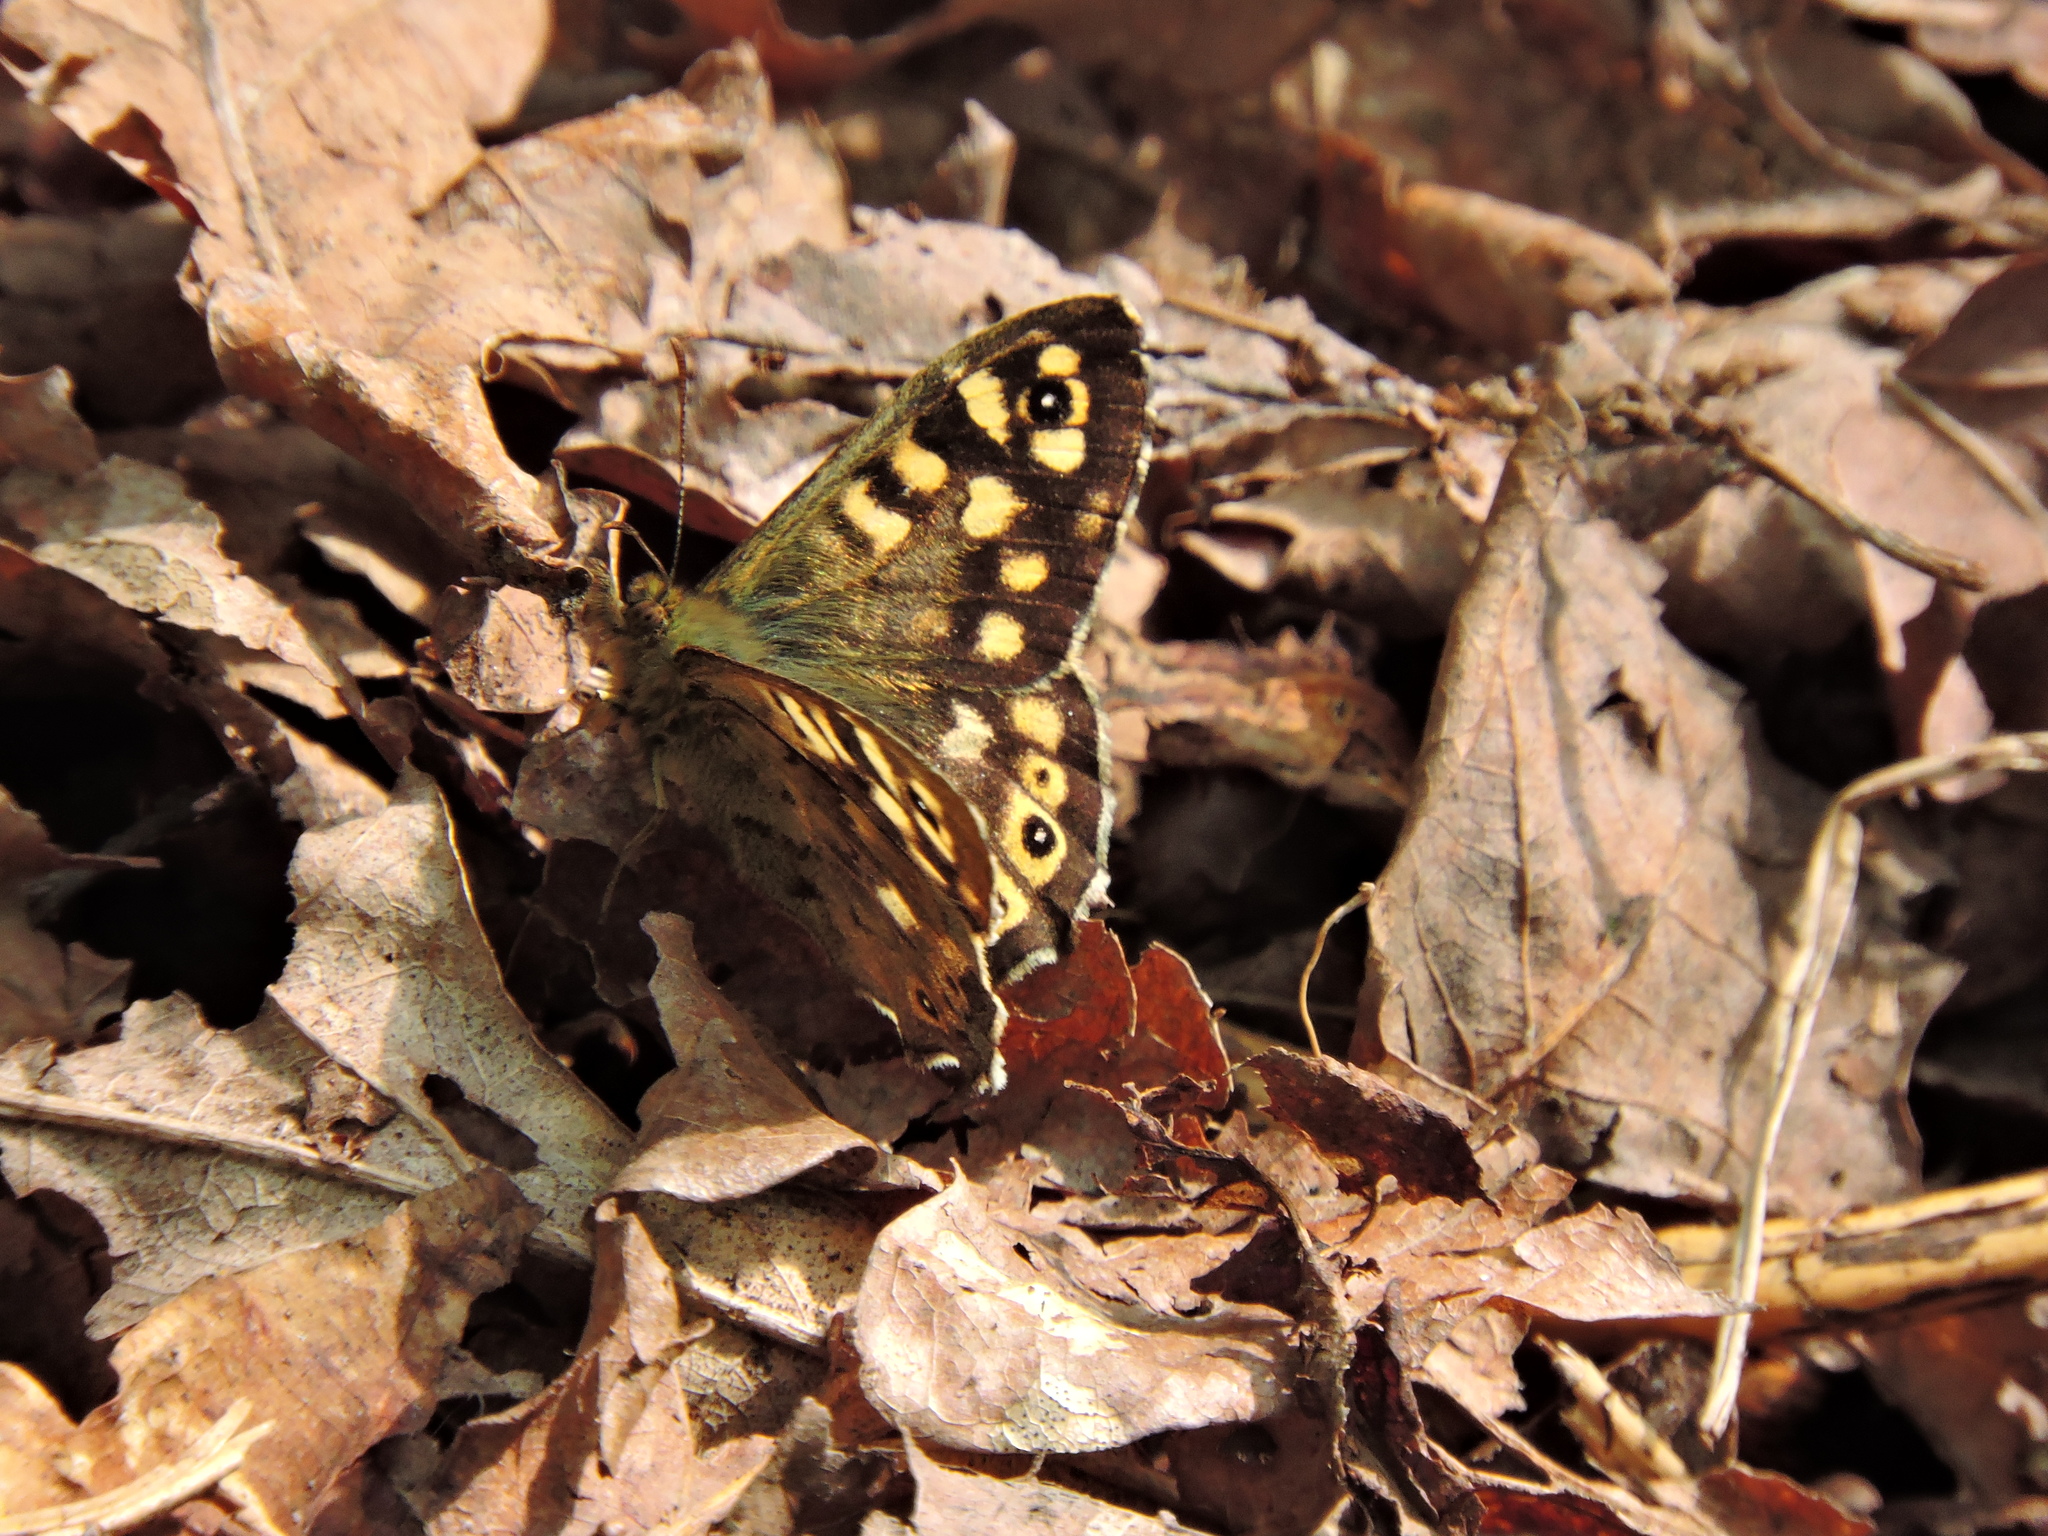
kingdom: Animalia
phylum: Arthropoda
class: Insecta
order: Lepidoptera
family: Nymphalidae
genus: Pararge
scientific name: Pararge aegeria
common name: Speckled wood
